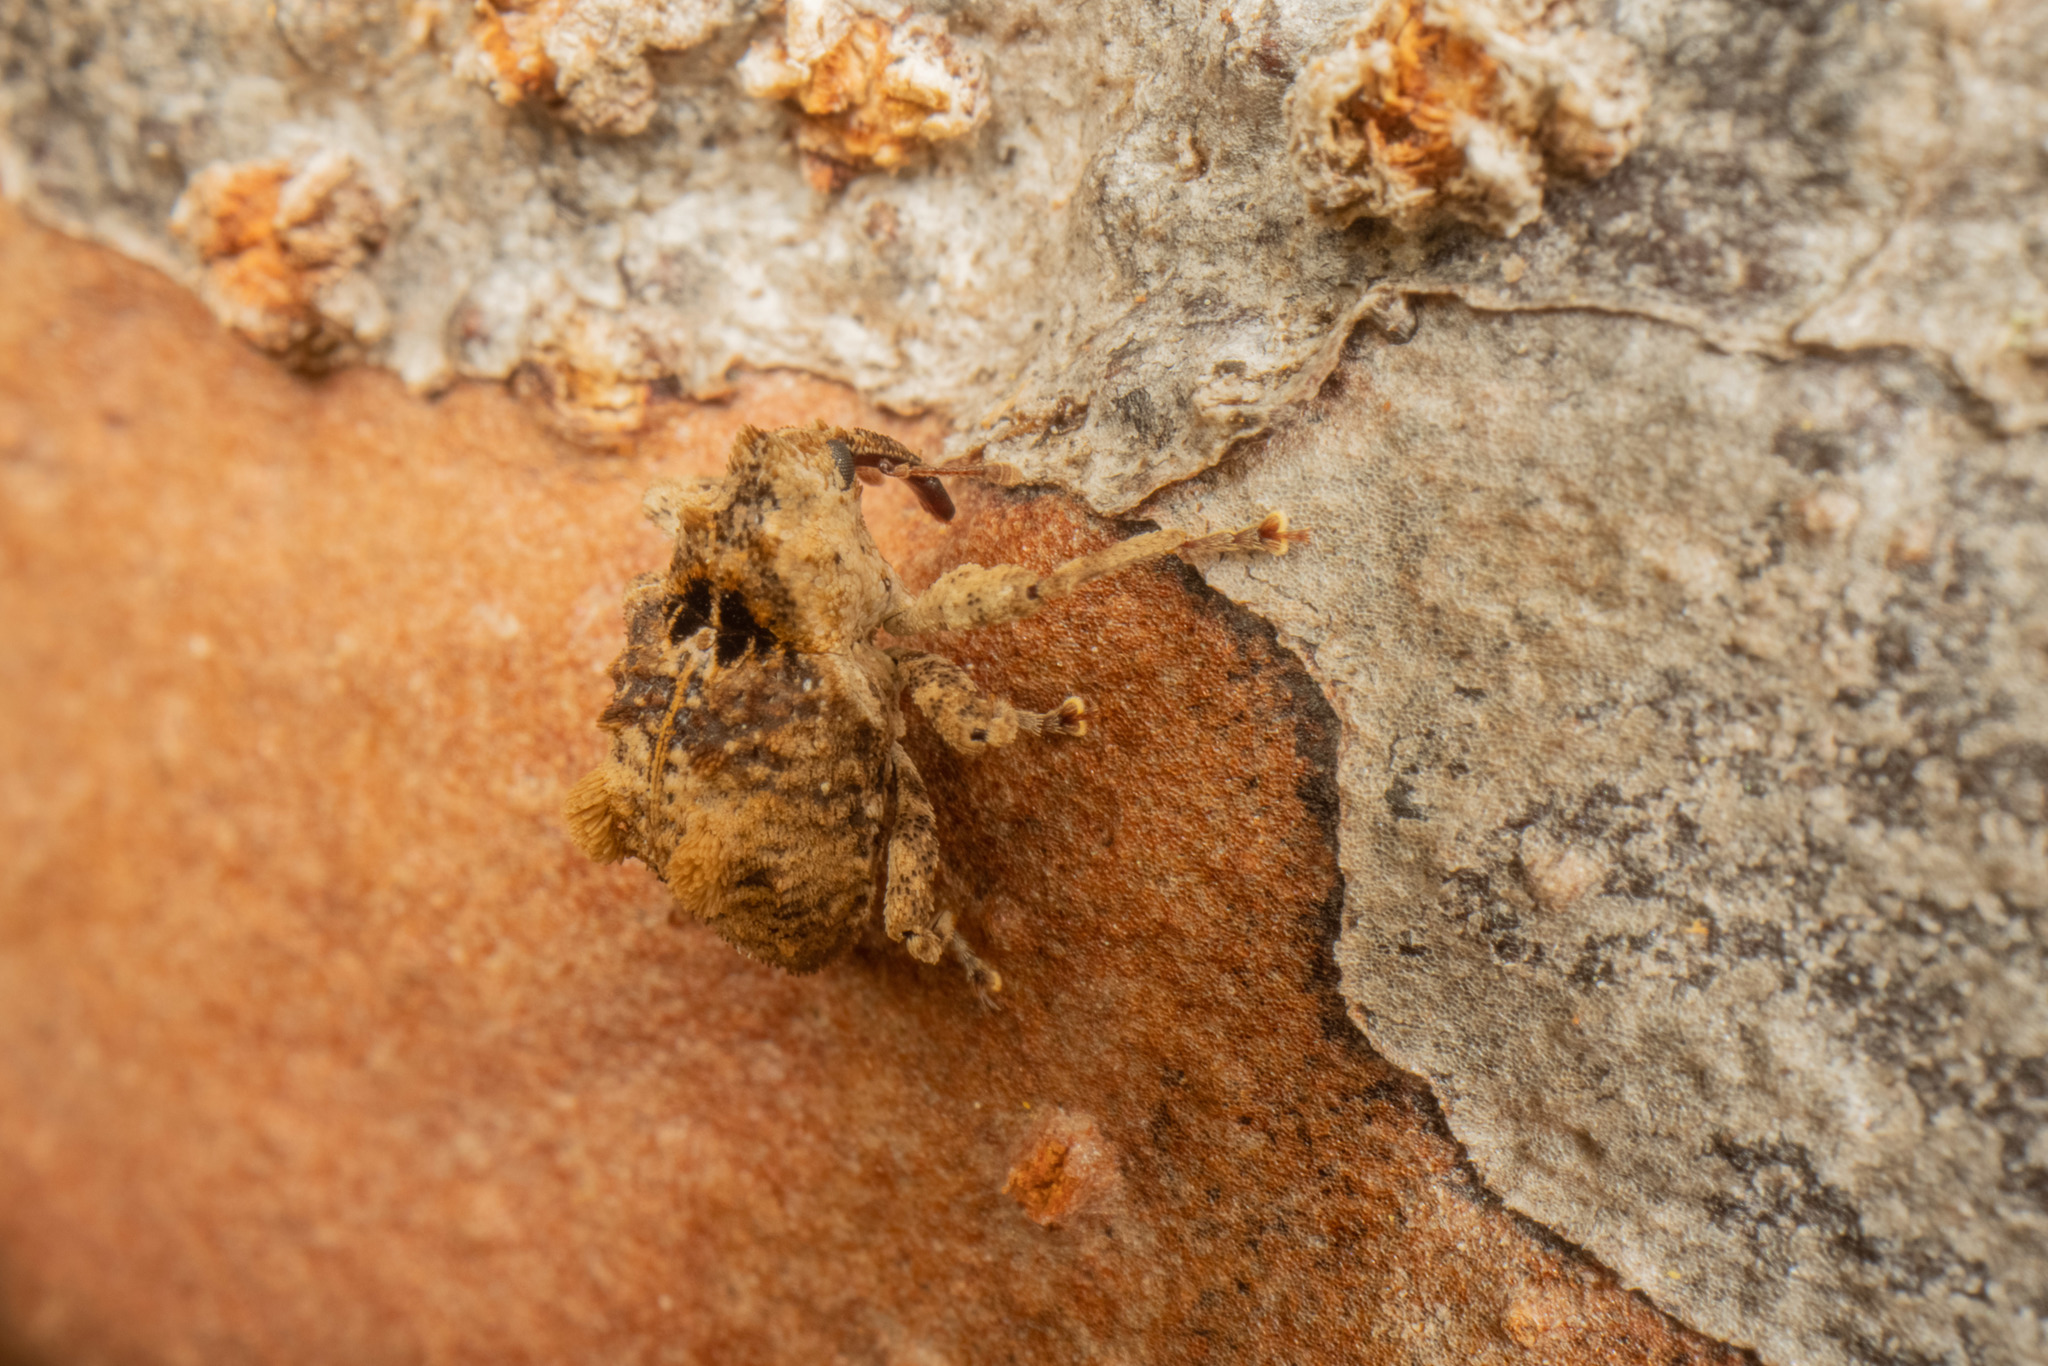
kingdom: Animalia
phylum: Arthropoda
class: Insecta
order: Coleoptera
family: Curculionidae
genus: Crisius
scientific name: Crisius binotatus
